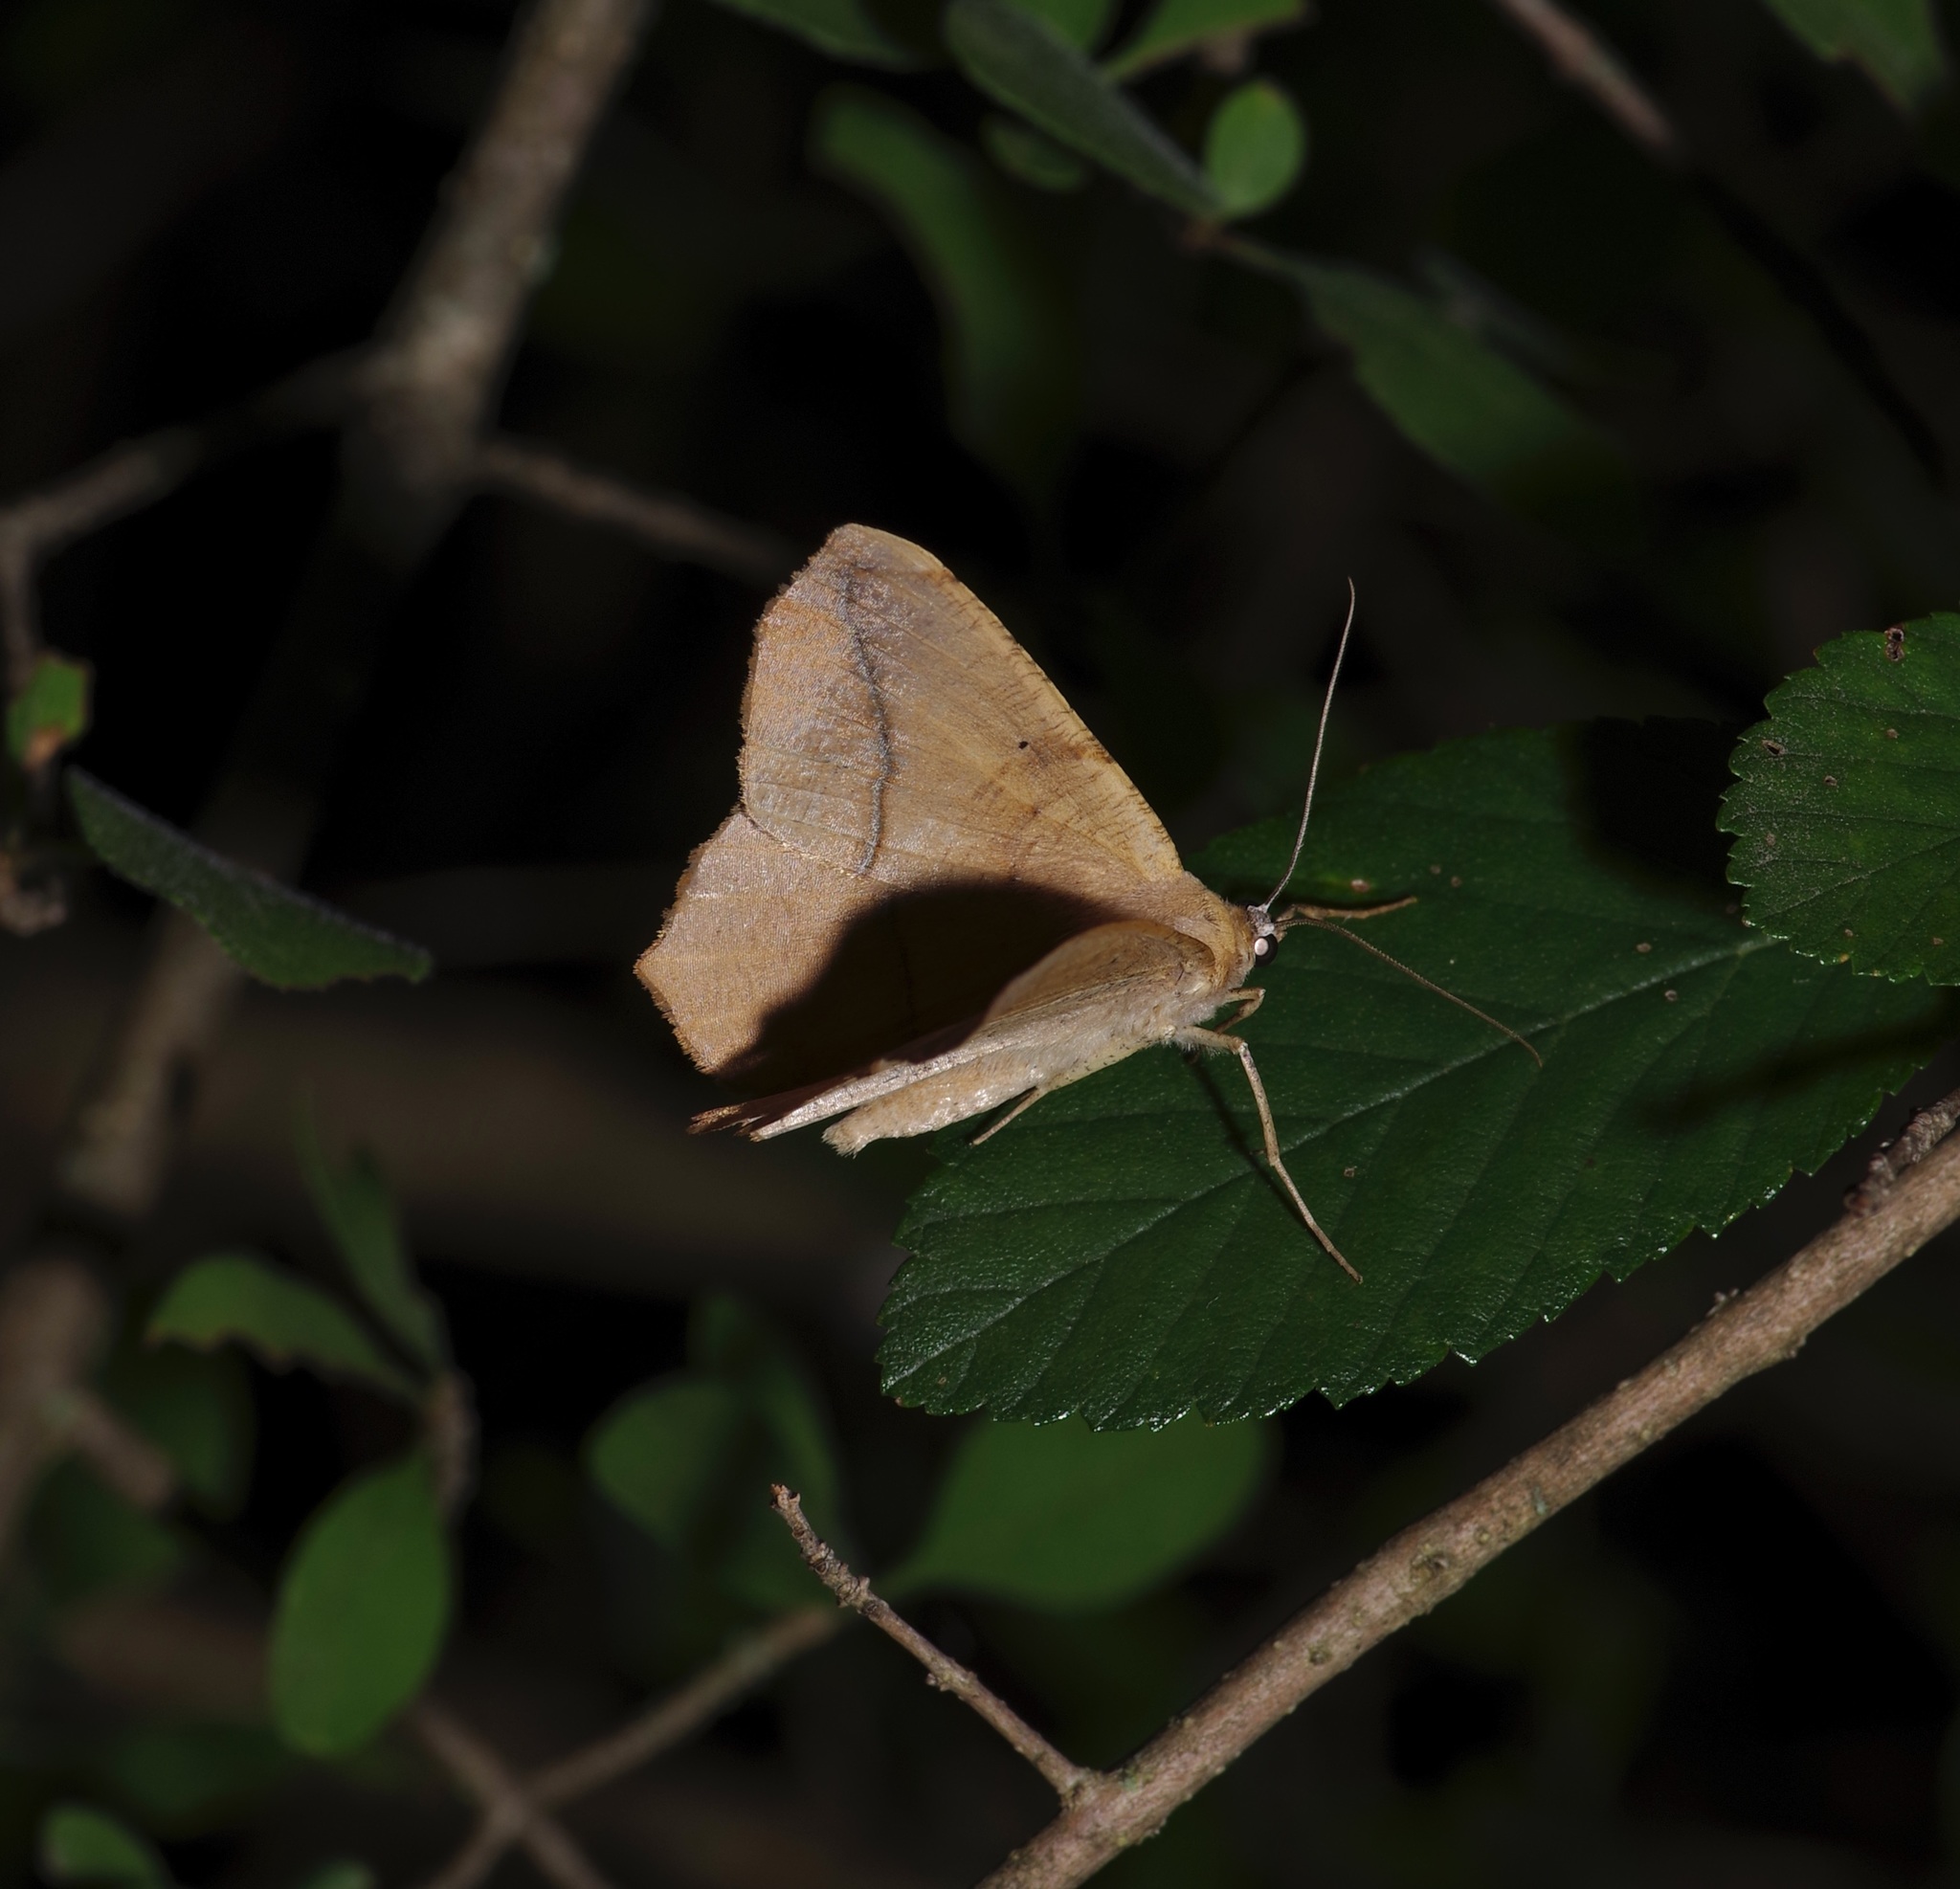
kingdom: Animalia
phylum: Arthropoda
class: Insecta
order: Lepidoptera
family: Geometridae
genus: Prochoerodes
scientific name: Prochoerodes lineola
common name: Large maple spanworm
